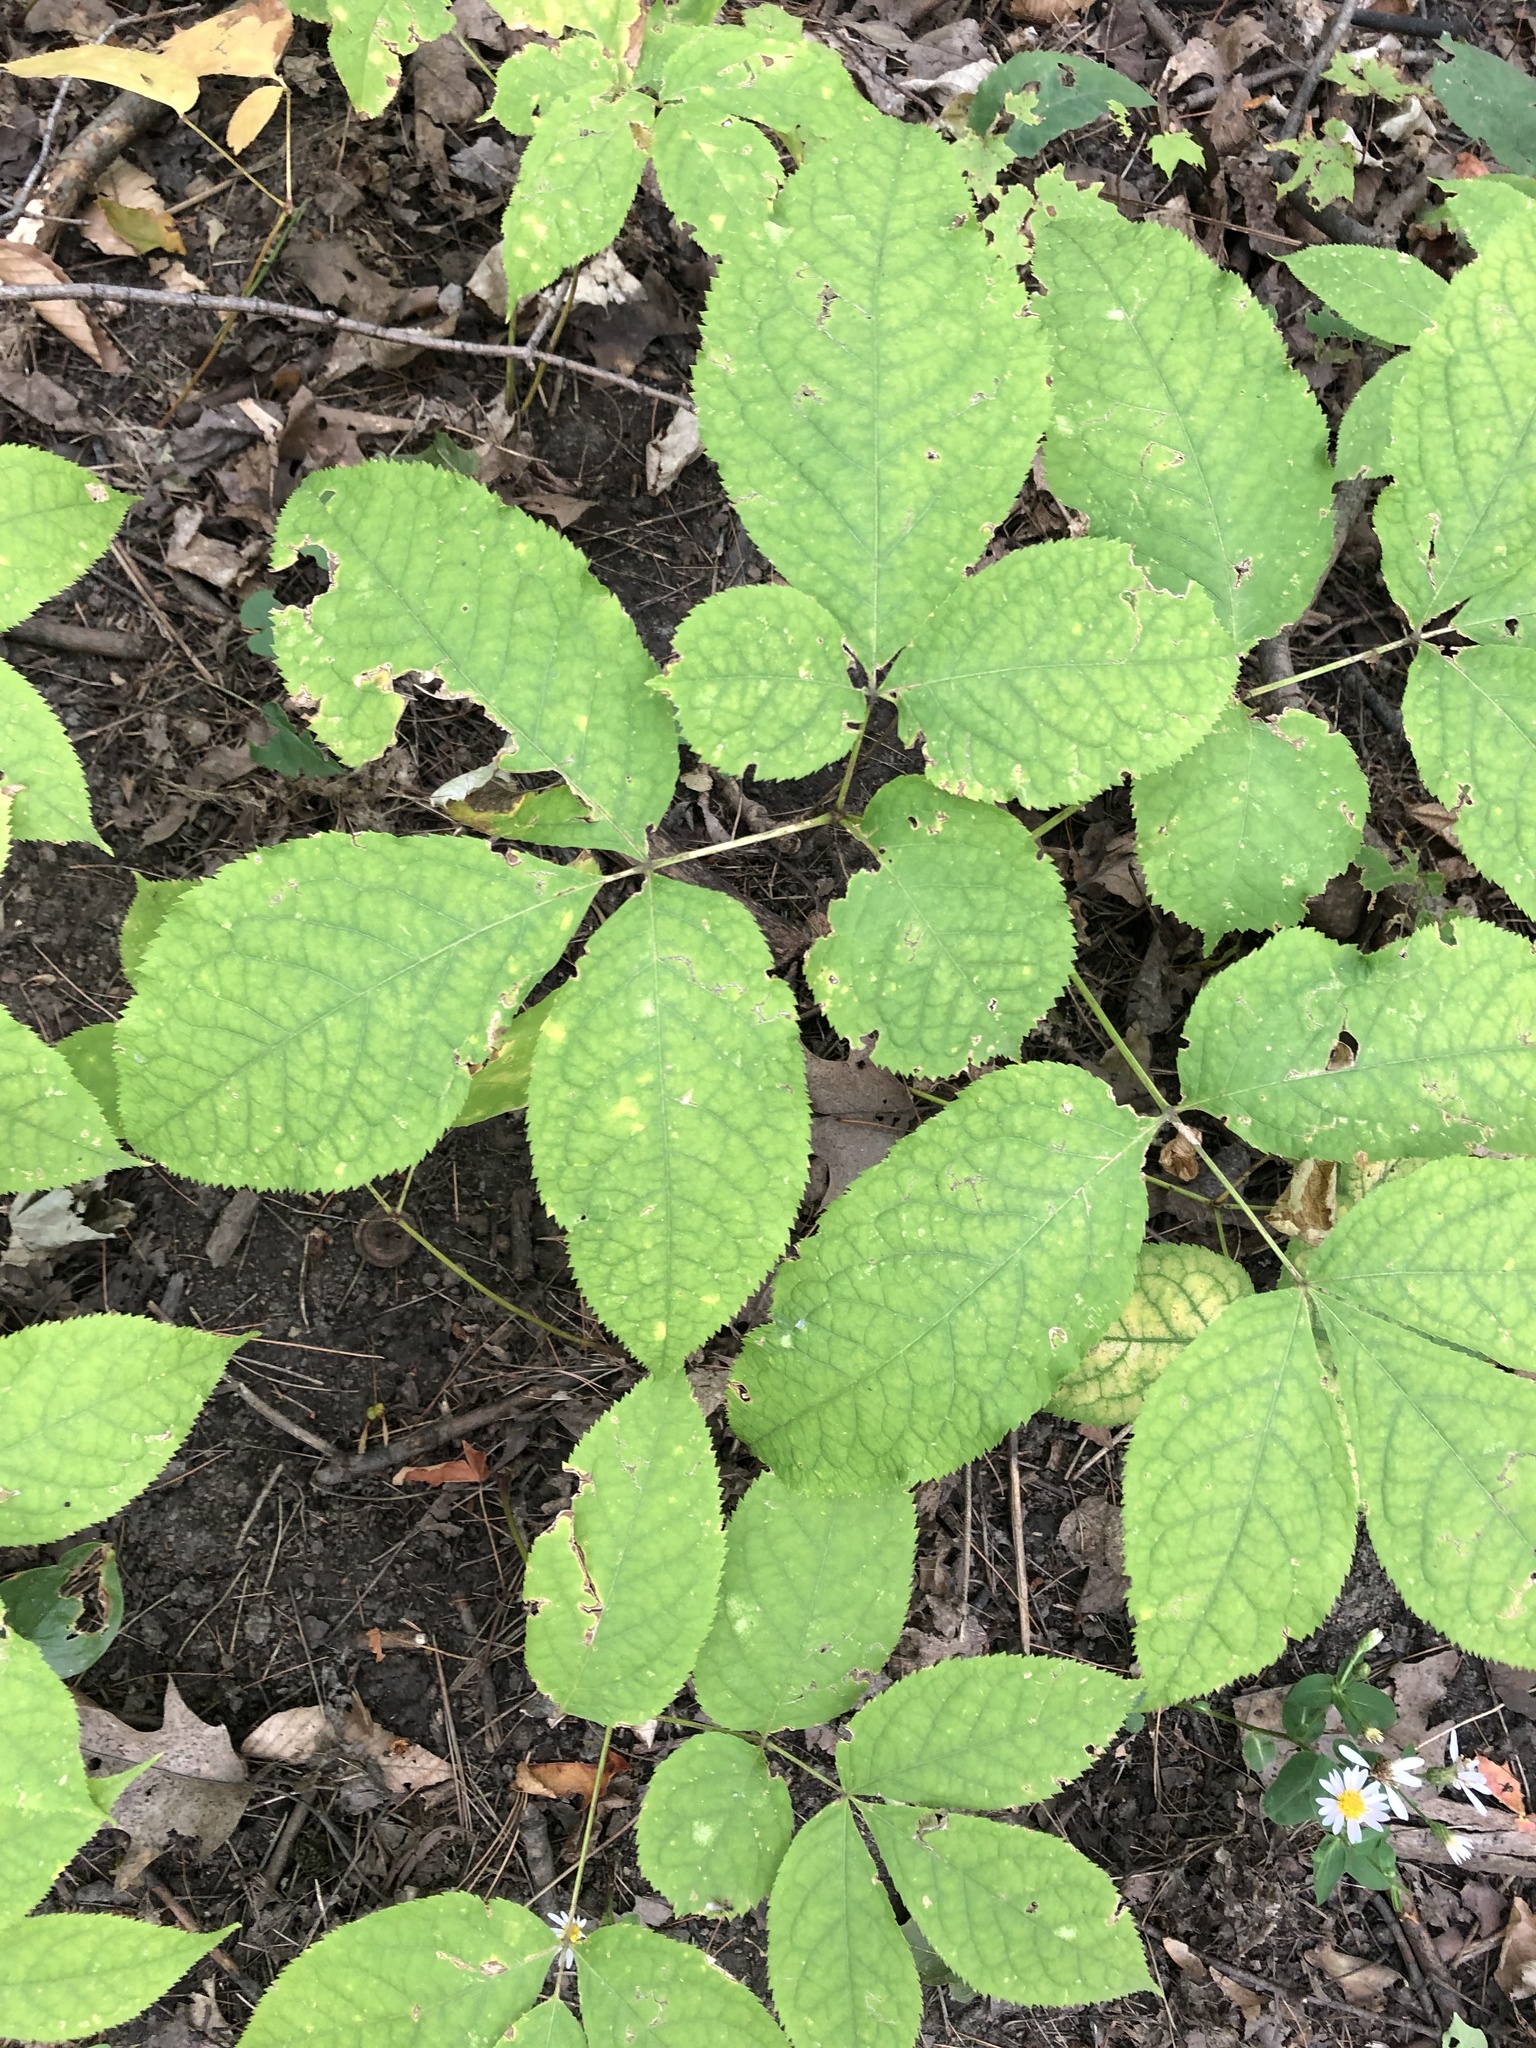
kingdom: Plantae
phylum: Tracheophyta
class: Magnoliopsida
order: Apiales
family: Araliaceae
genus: Aralia
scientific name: Aralia nudicaulis
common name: Wild sarsaparilla
